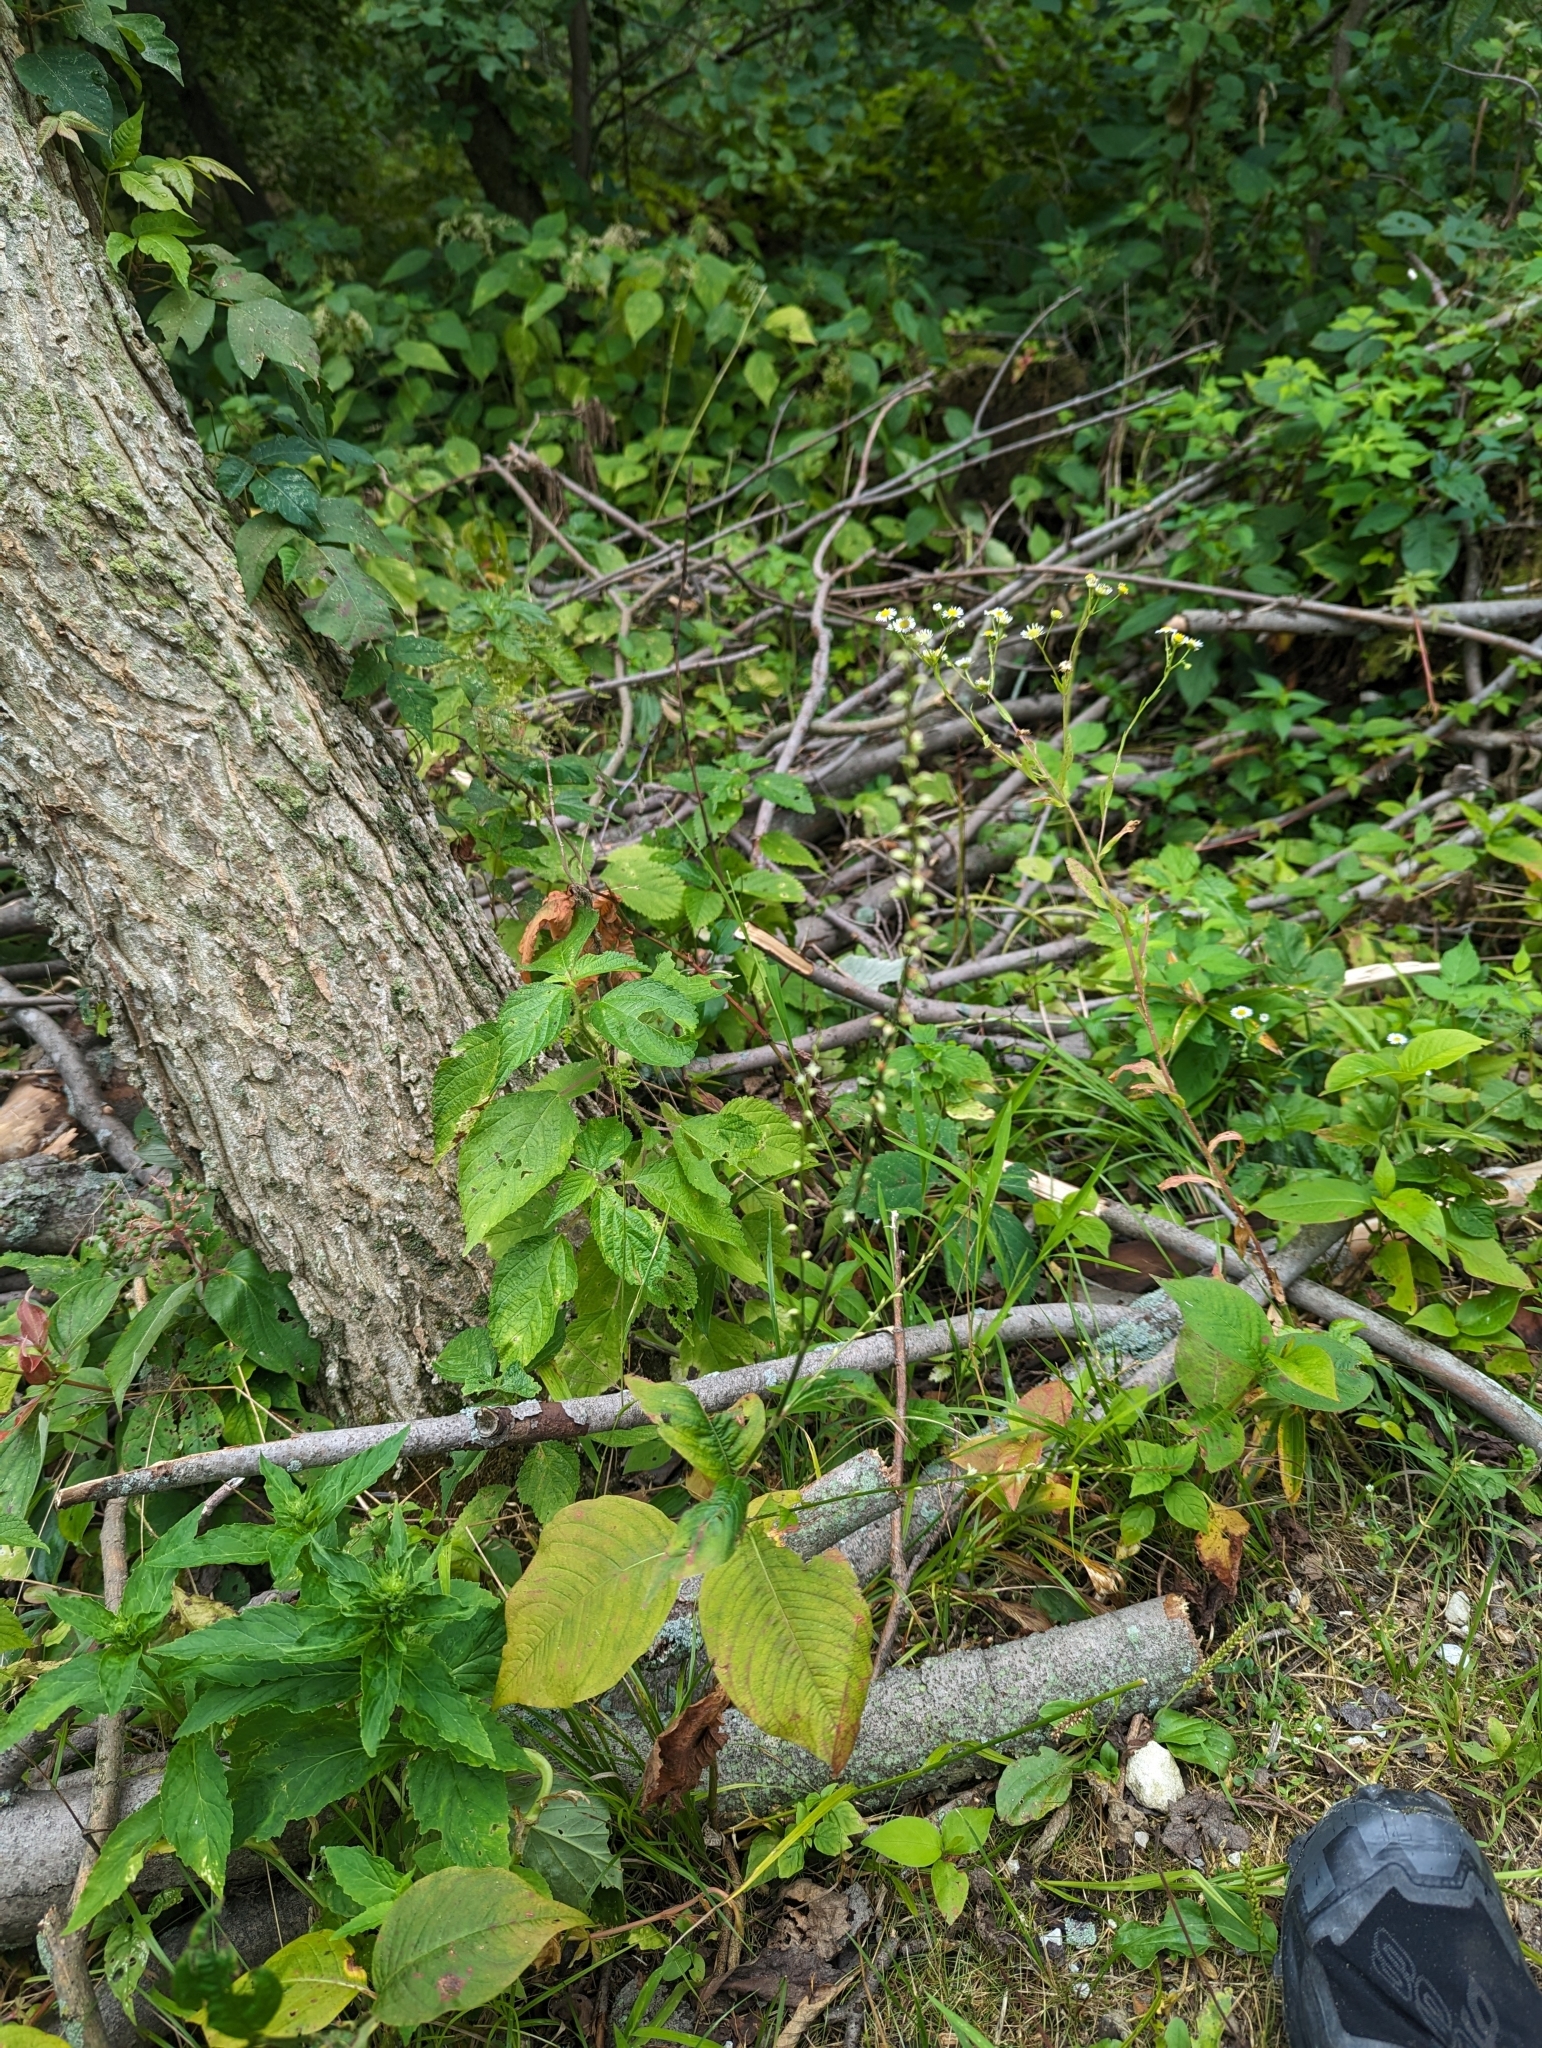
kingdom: Plantae
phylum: Tracheophyta
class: Magnoliopsida
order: Caryophyllales
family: Polygonaceae
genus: Persicaria
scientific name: Persicaria virginiana
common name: Jumpseed
